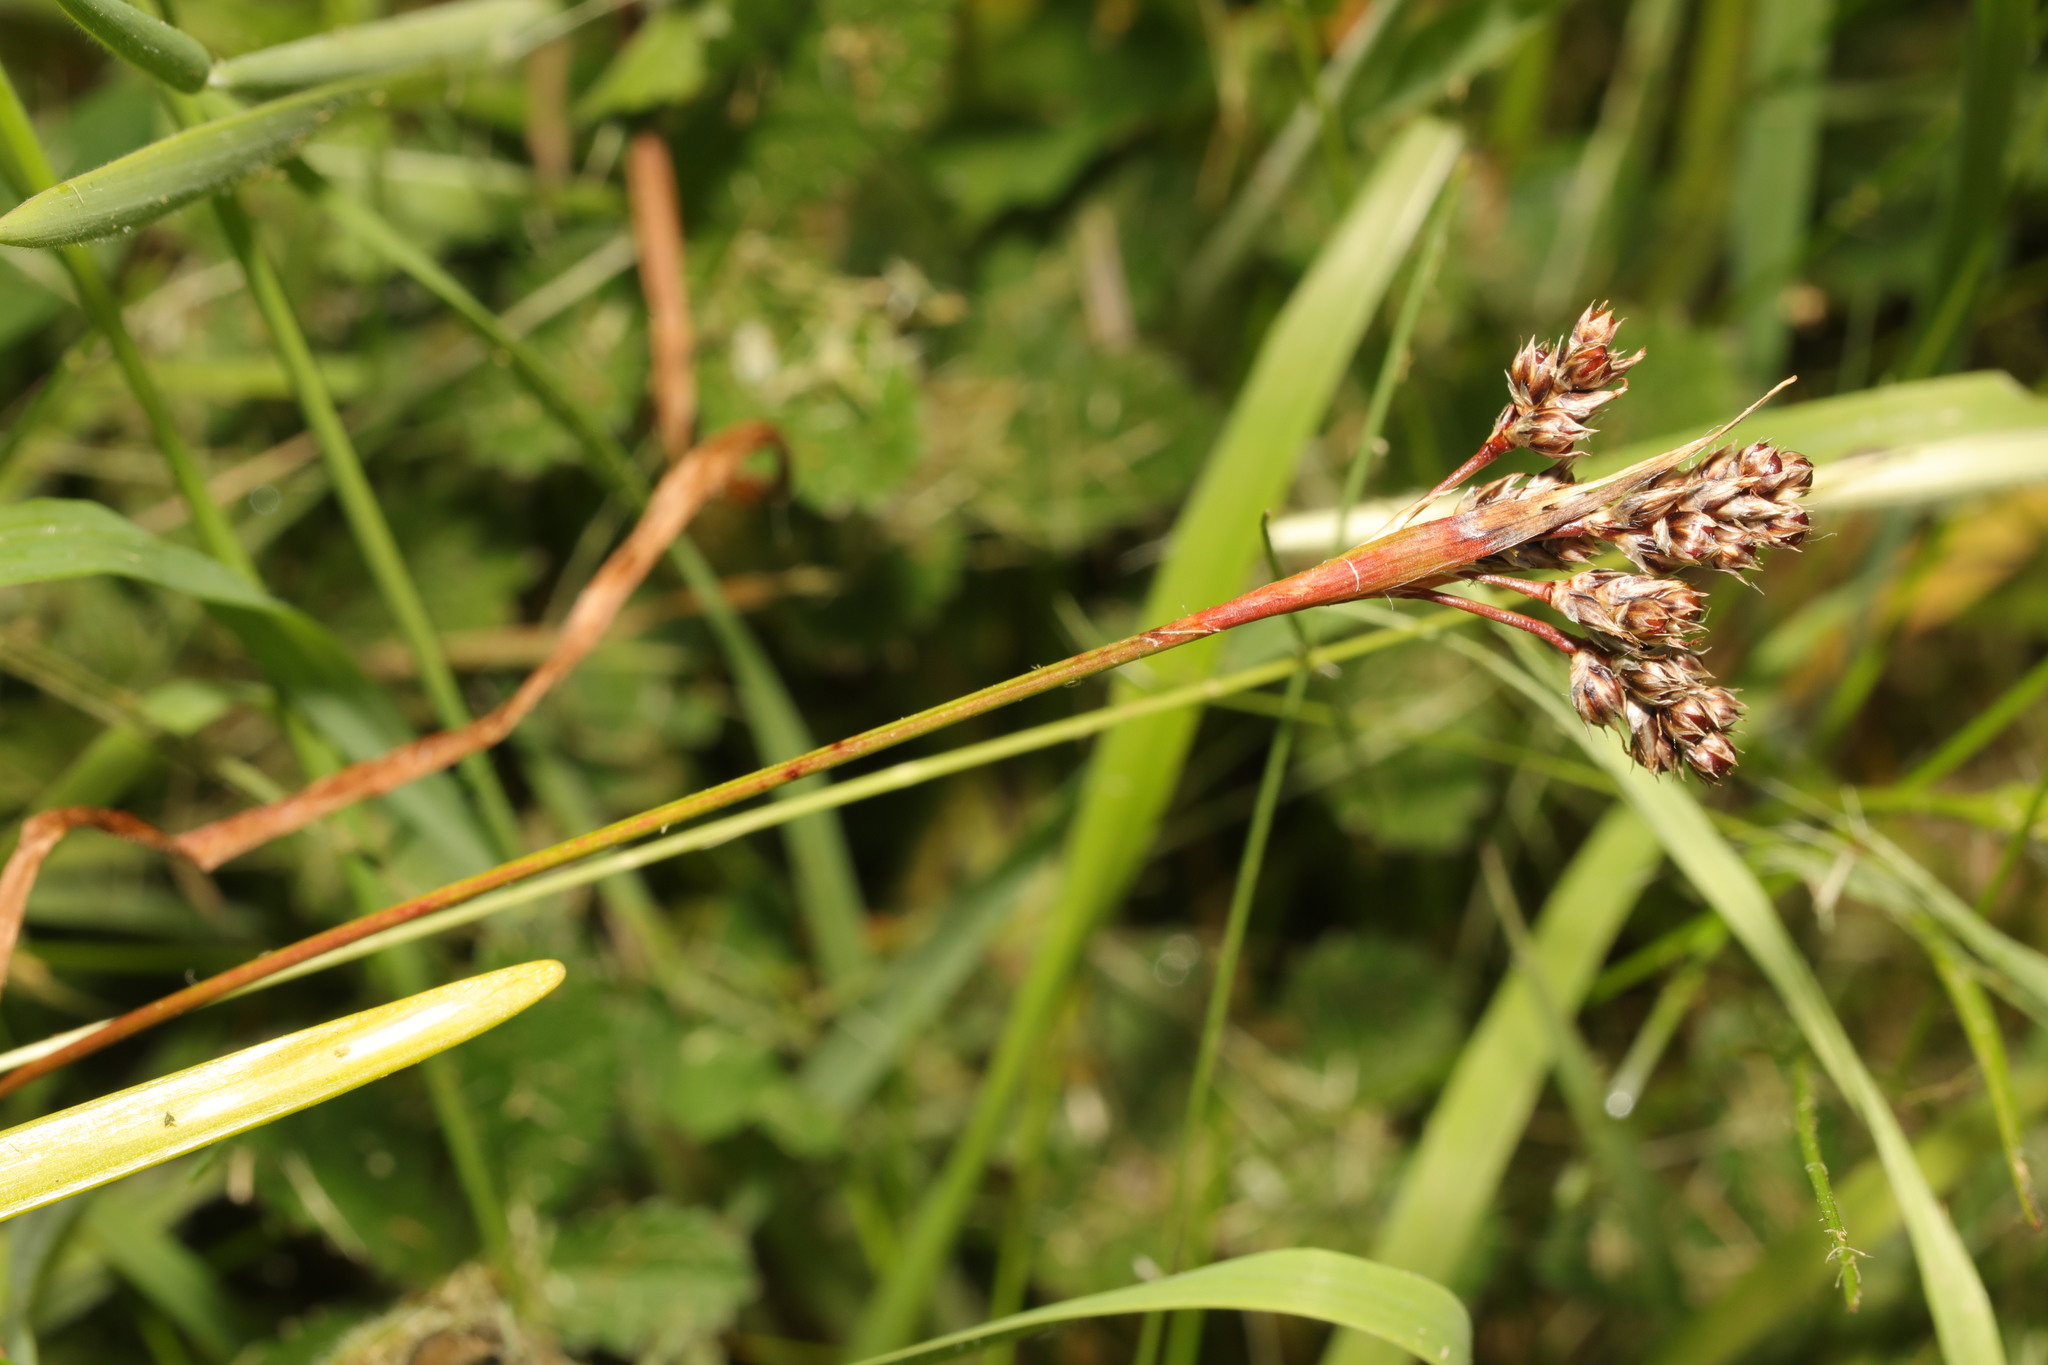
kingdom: Plantae
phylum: Tracheophyta
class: Liliopsida
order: Poales
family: Juncaceae
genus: Luzula
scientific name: Luzula multiflora
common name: Heath wood-rush
